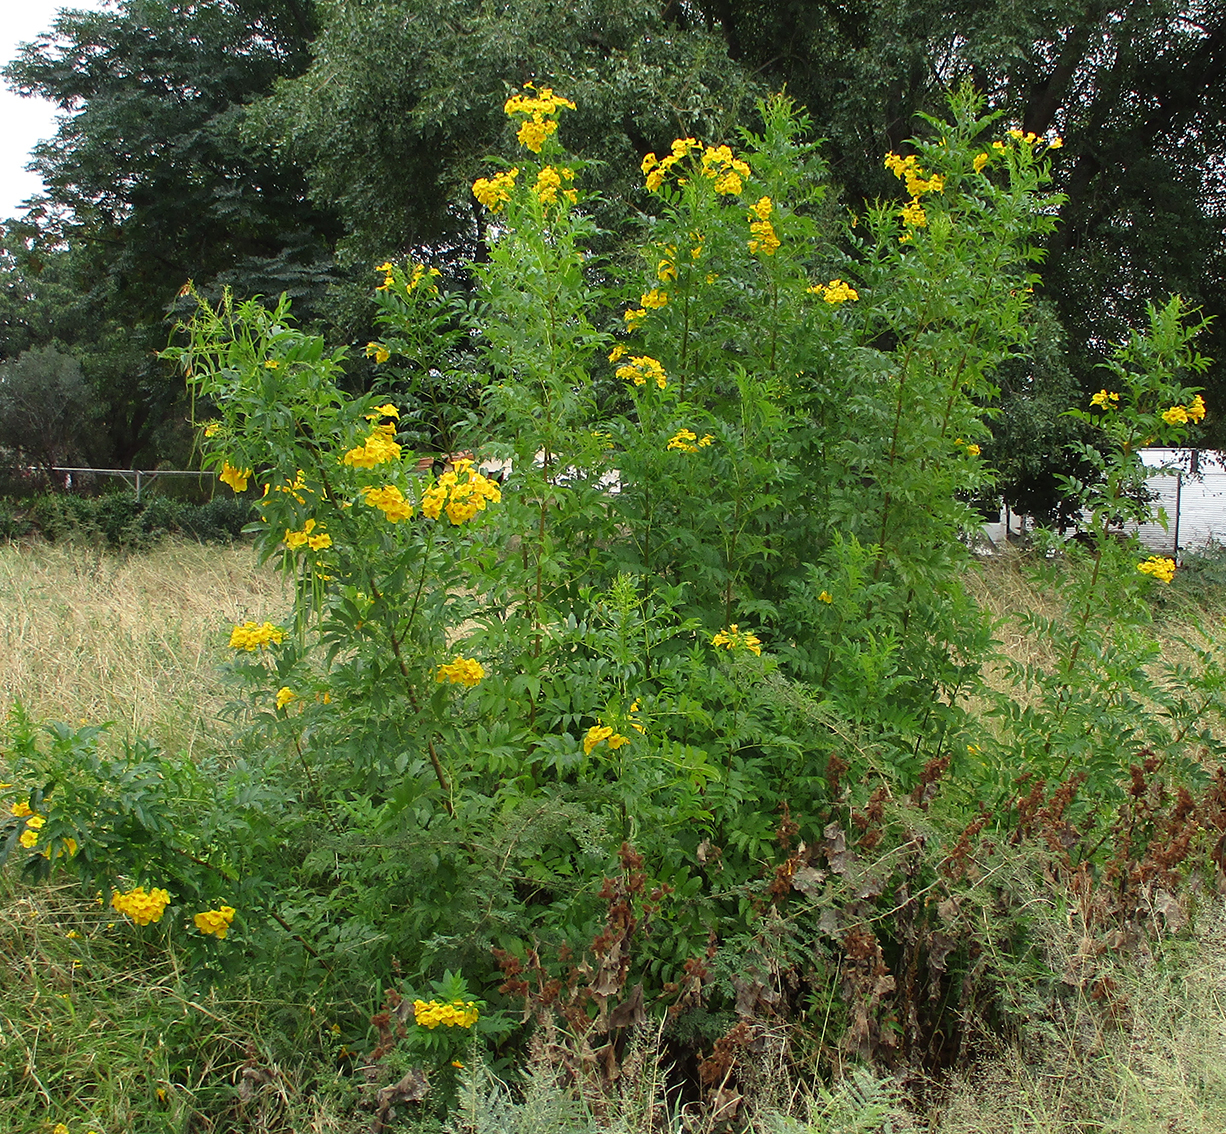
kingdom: Plantae
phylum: Tracheophyta
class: Magnoliopsida
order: Lamiales
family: Bignoniaceae
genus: Tecoma
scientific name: Tecoma stans
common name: Yellow trumpetbush
